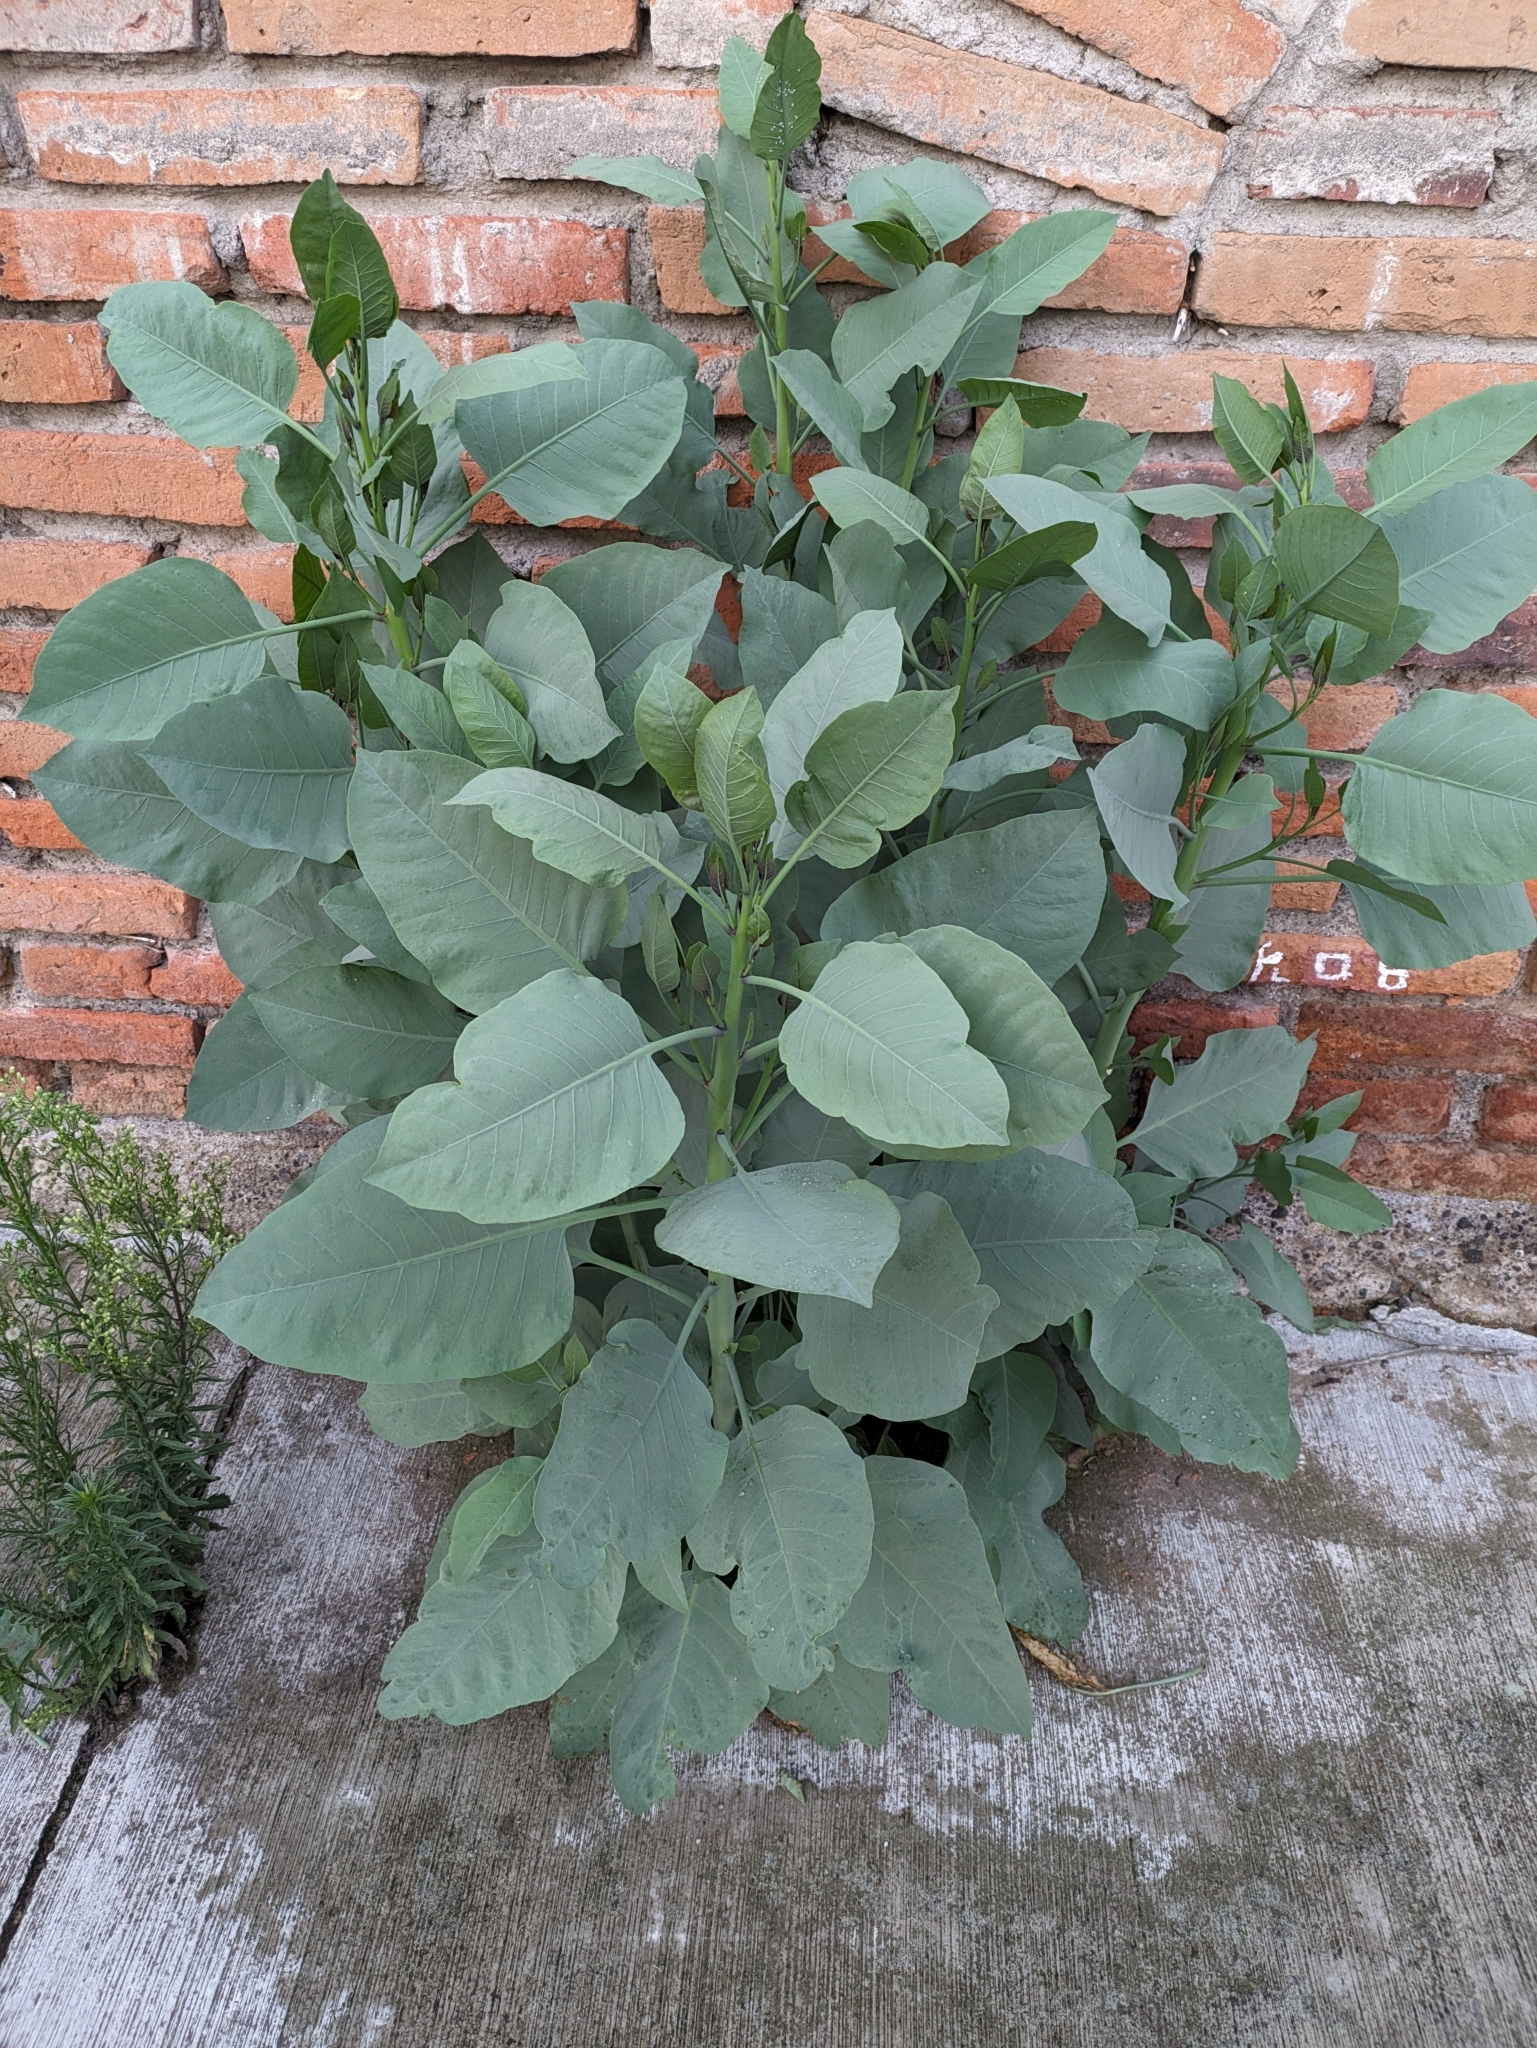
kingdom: Plantae
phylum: Tracheophyta
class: Magnoliopsida
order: Solanales
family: Solanaceae
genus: Nicotiana
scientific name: Nicotiana glauca
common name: Tree tobacco
